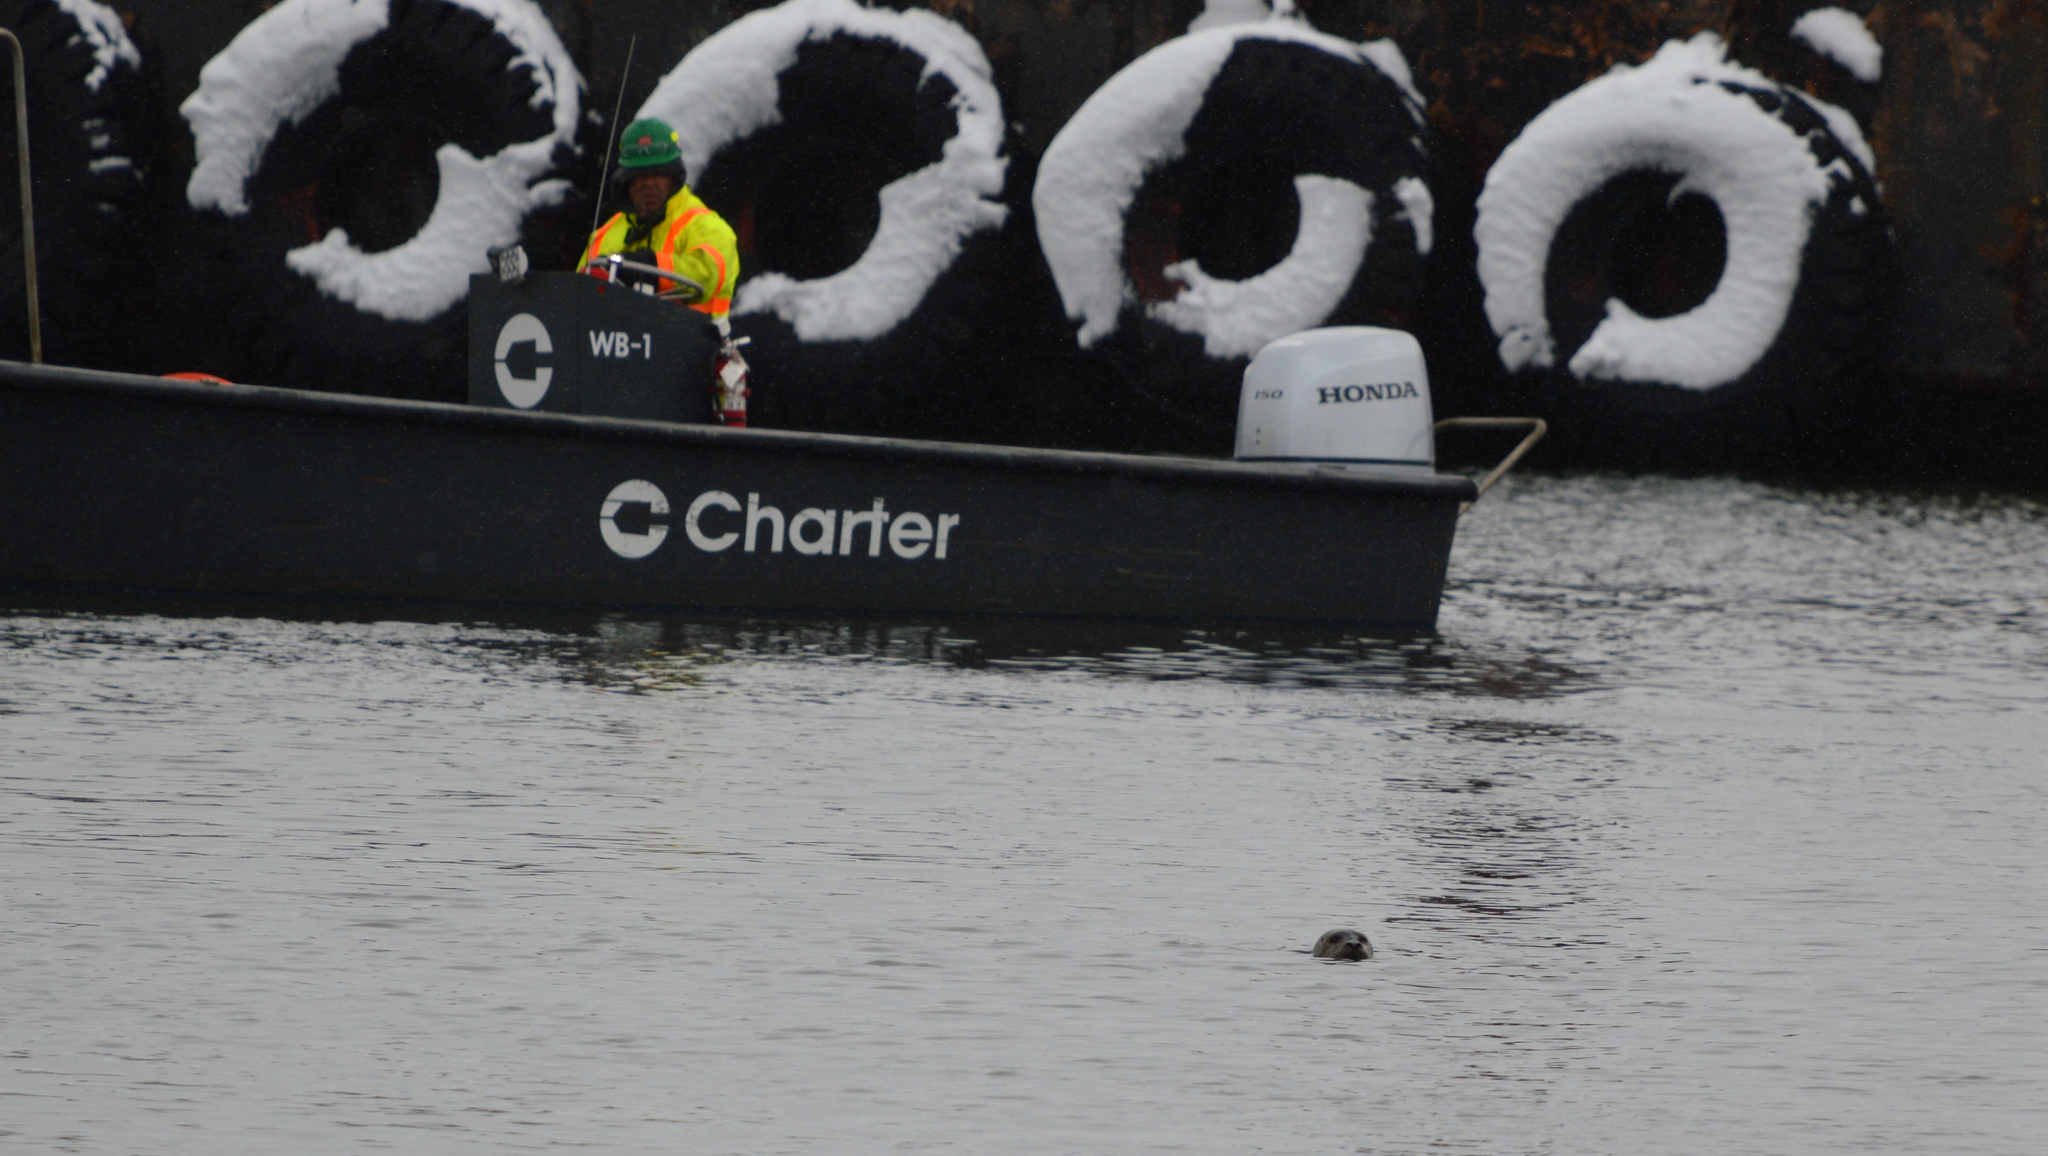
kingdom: Animalia
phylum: Chordata
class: Mammalia
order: Carnivora
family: Phocidae
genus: Phoca
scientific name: Phoca vitulina
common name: Harbor seal
